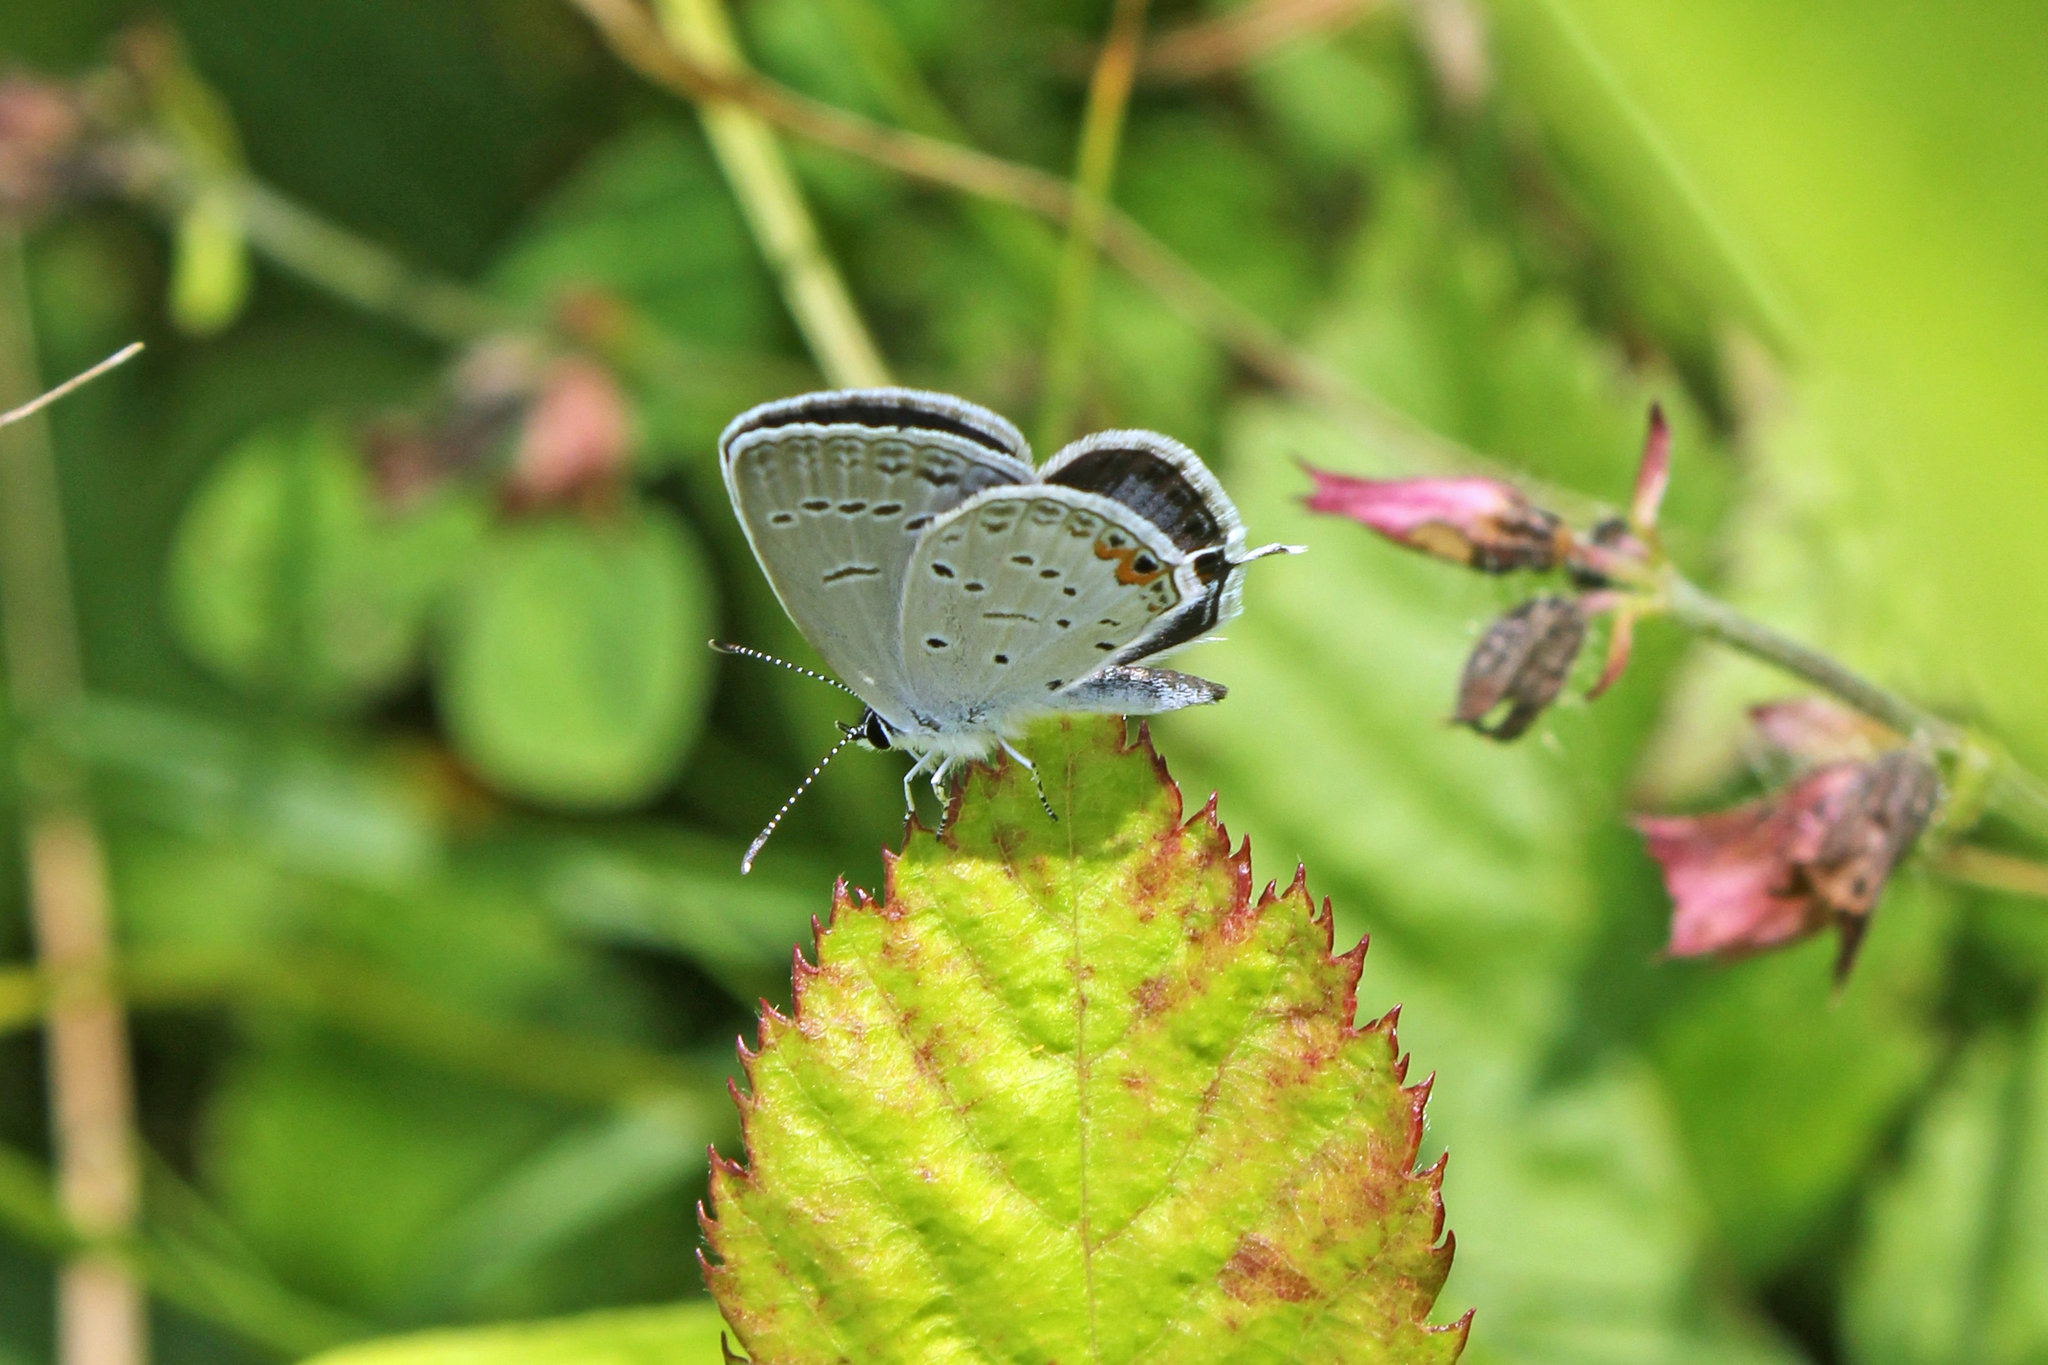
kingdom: Animalia
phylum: Arthropoda
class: Insecta
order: Lepidoptera
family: Lycaenidae
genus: Elkalyce
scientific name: Elkalyce comyntas
